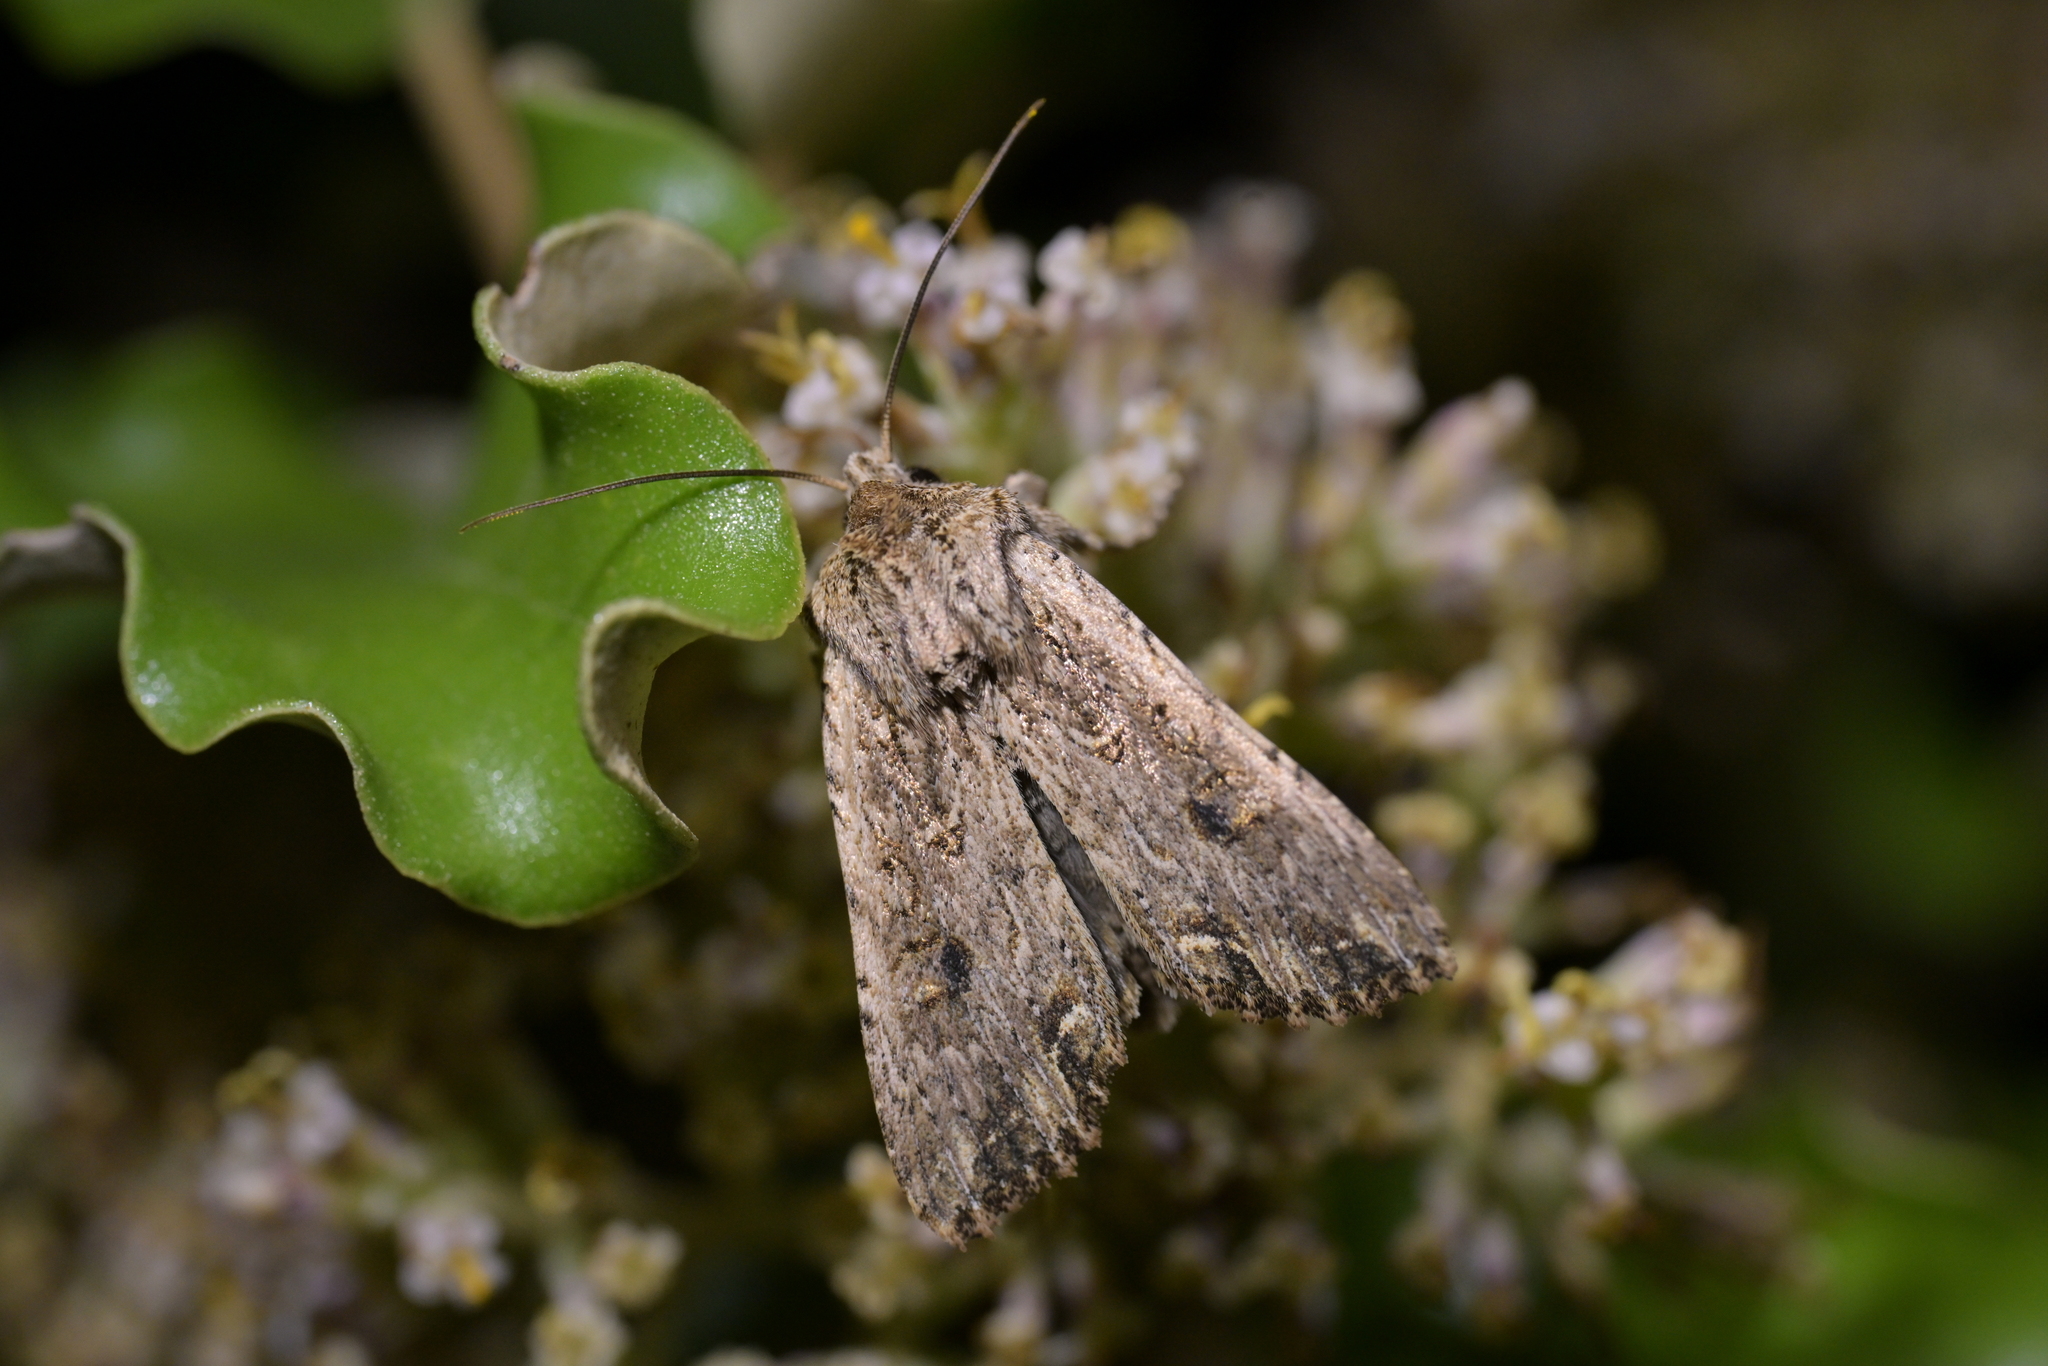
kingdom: Animalia
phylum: Arthropoda
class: Insecta
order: Lepidoptera
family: Noctuidae
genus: Ichneutica
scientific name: Ichneutica lignana
